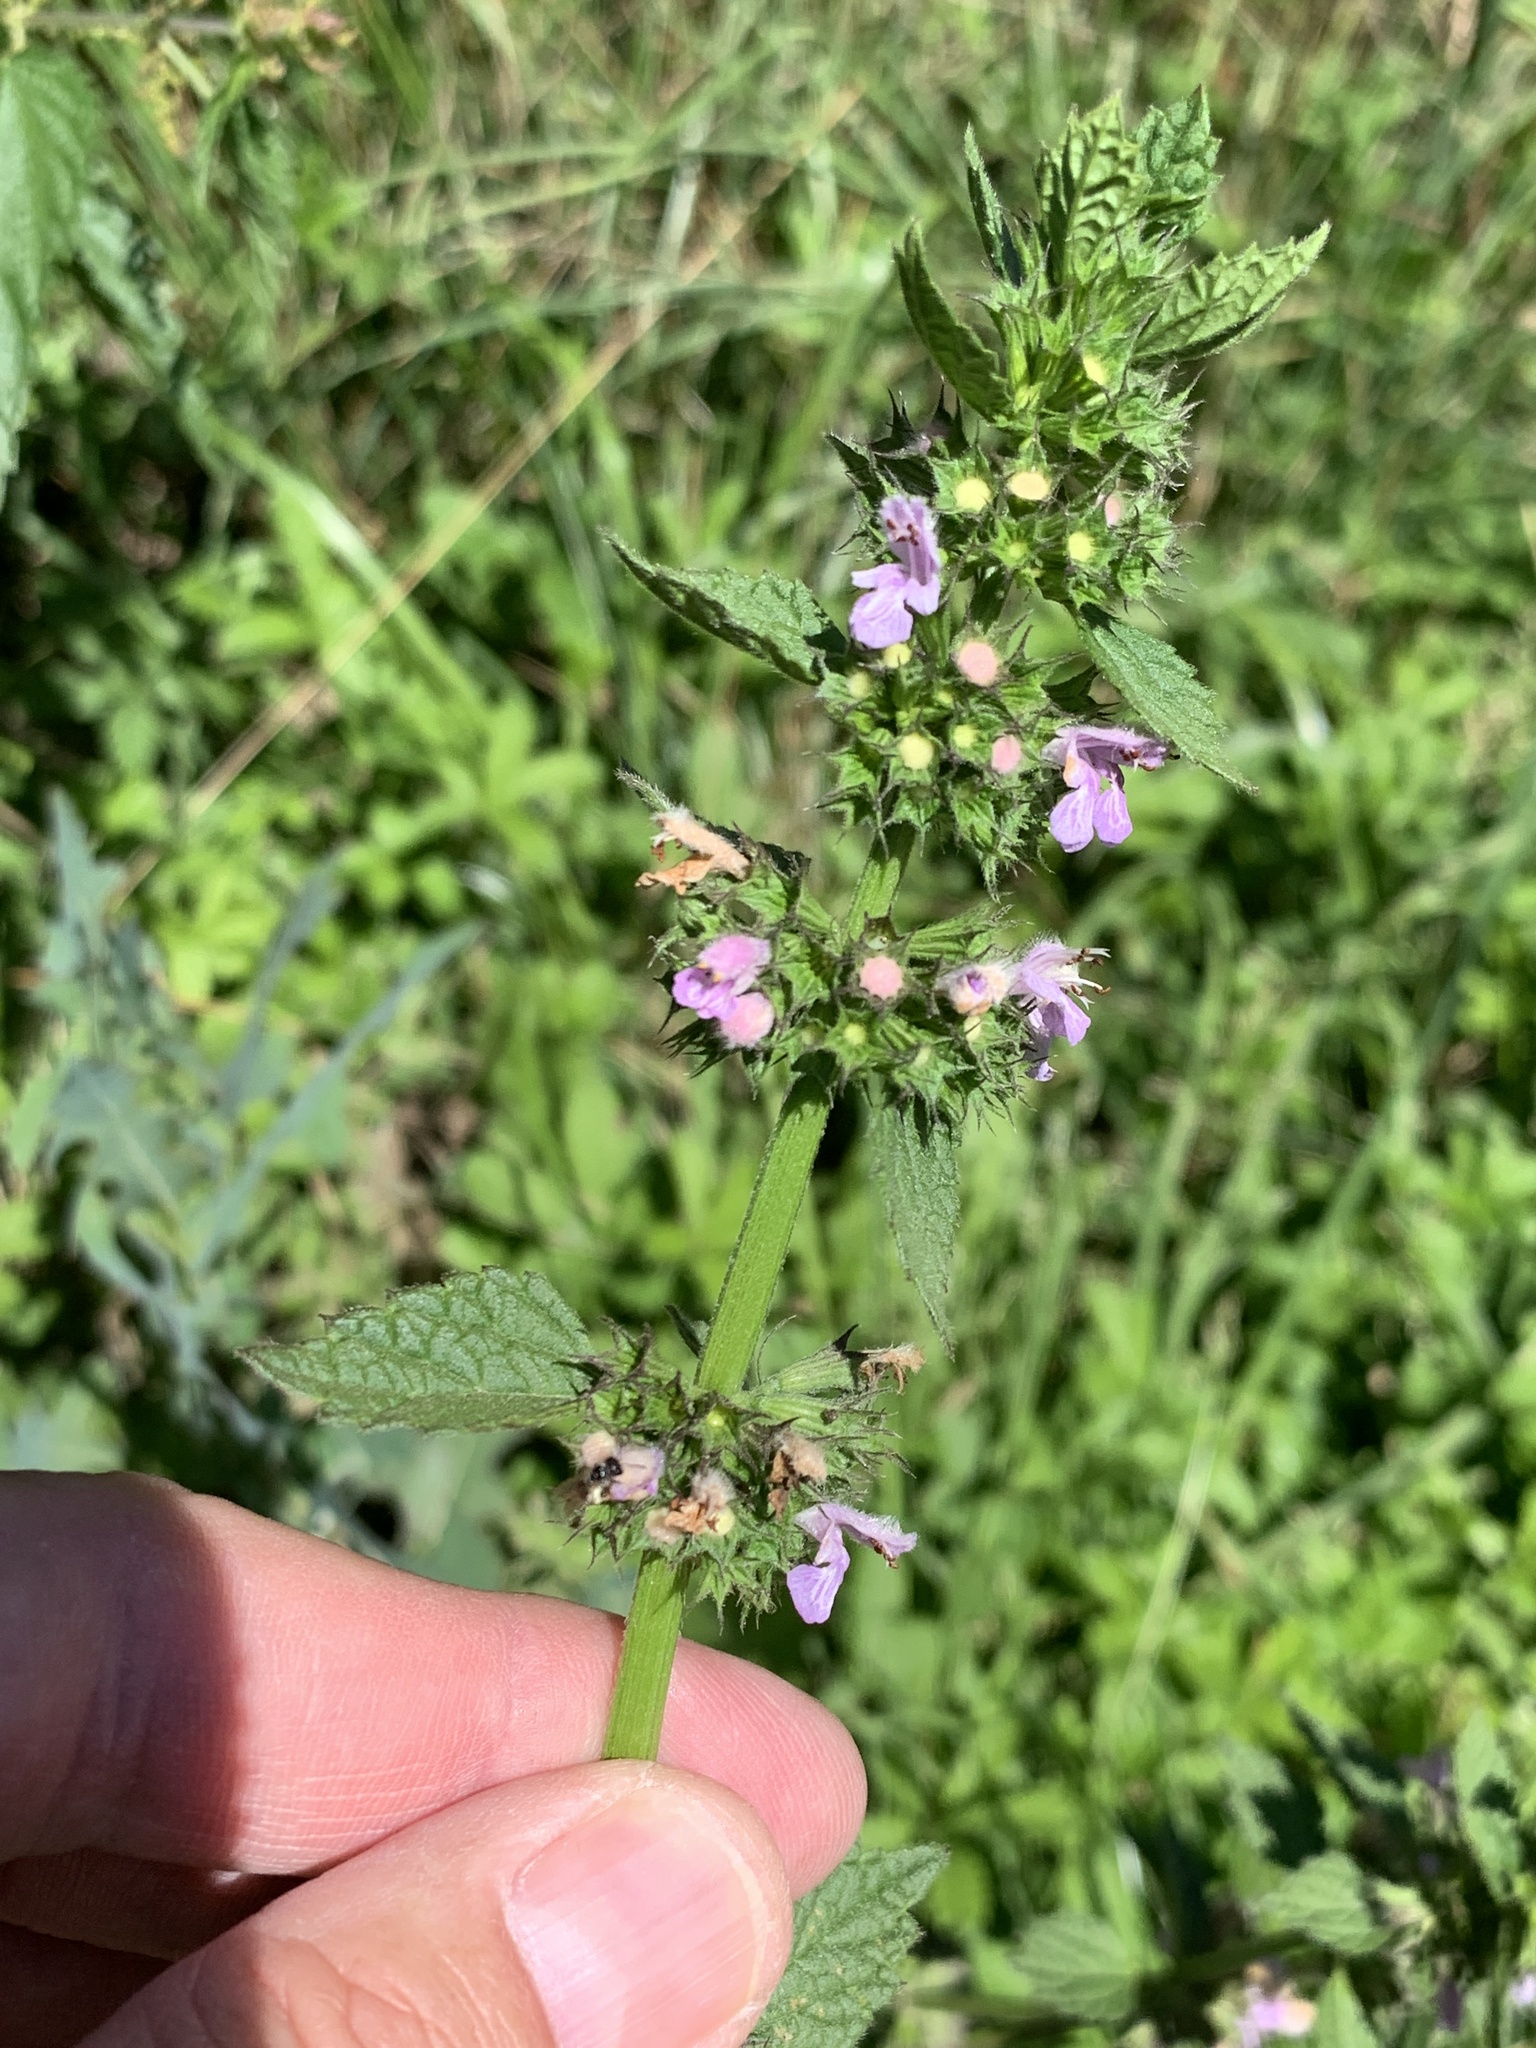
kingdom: Plantae
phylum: Tracheophyta
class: Magnoliopsida
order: Lamiales
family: Lamiaceae
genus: Ballota
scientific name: Ballota nigra
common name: Black horehound
